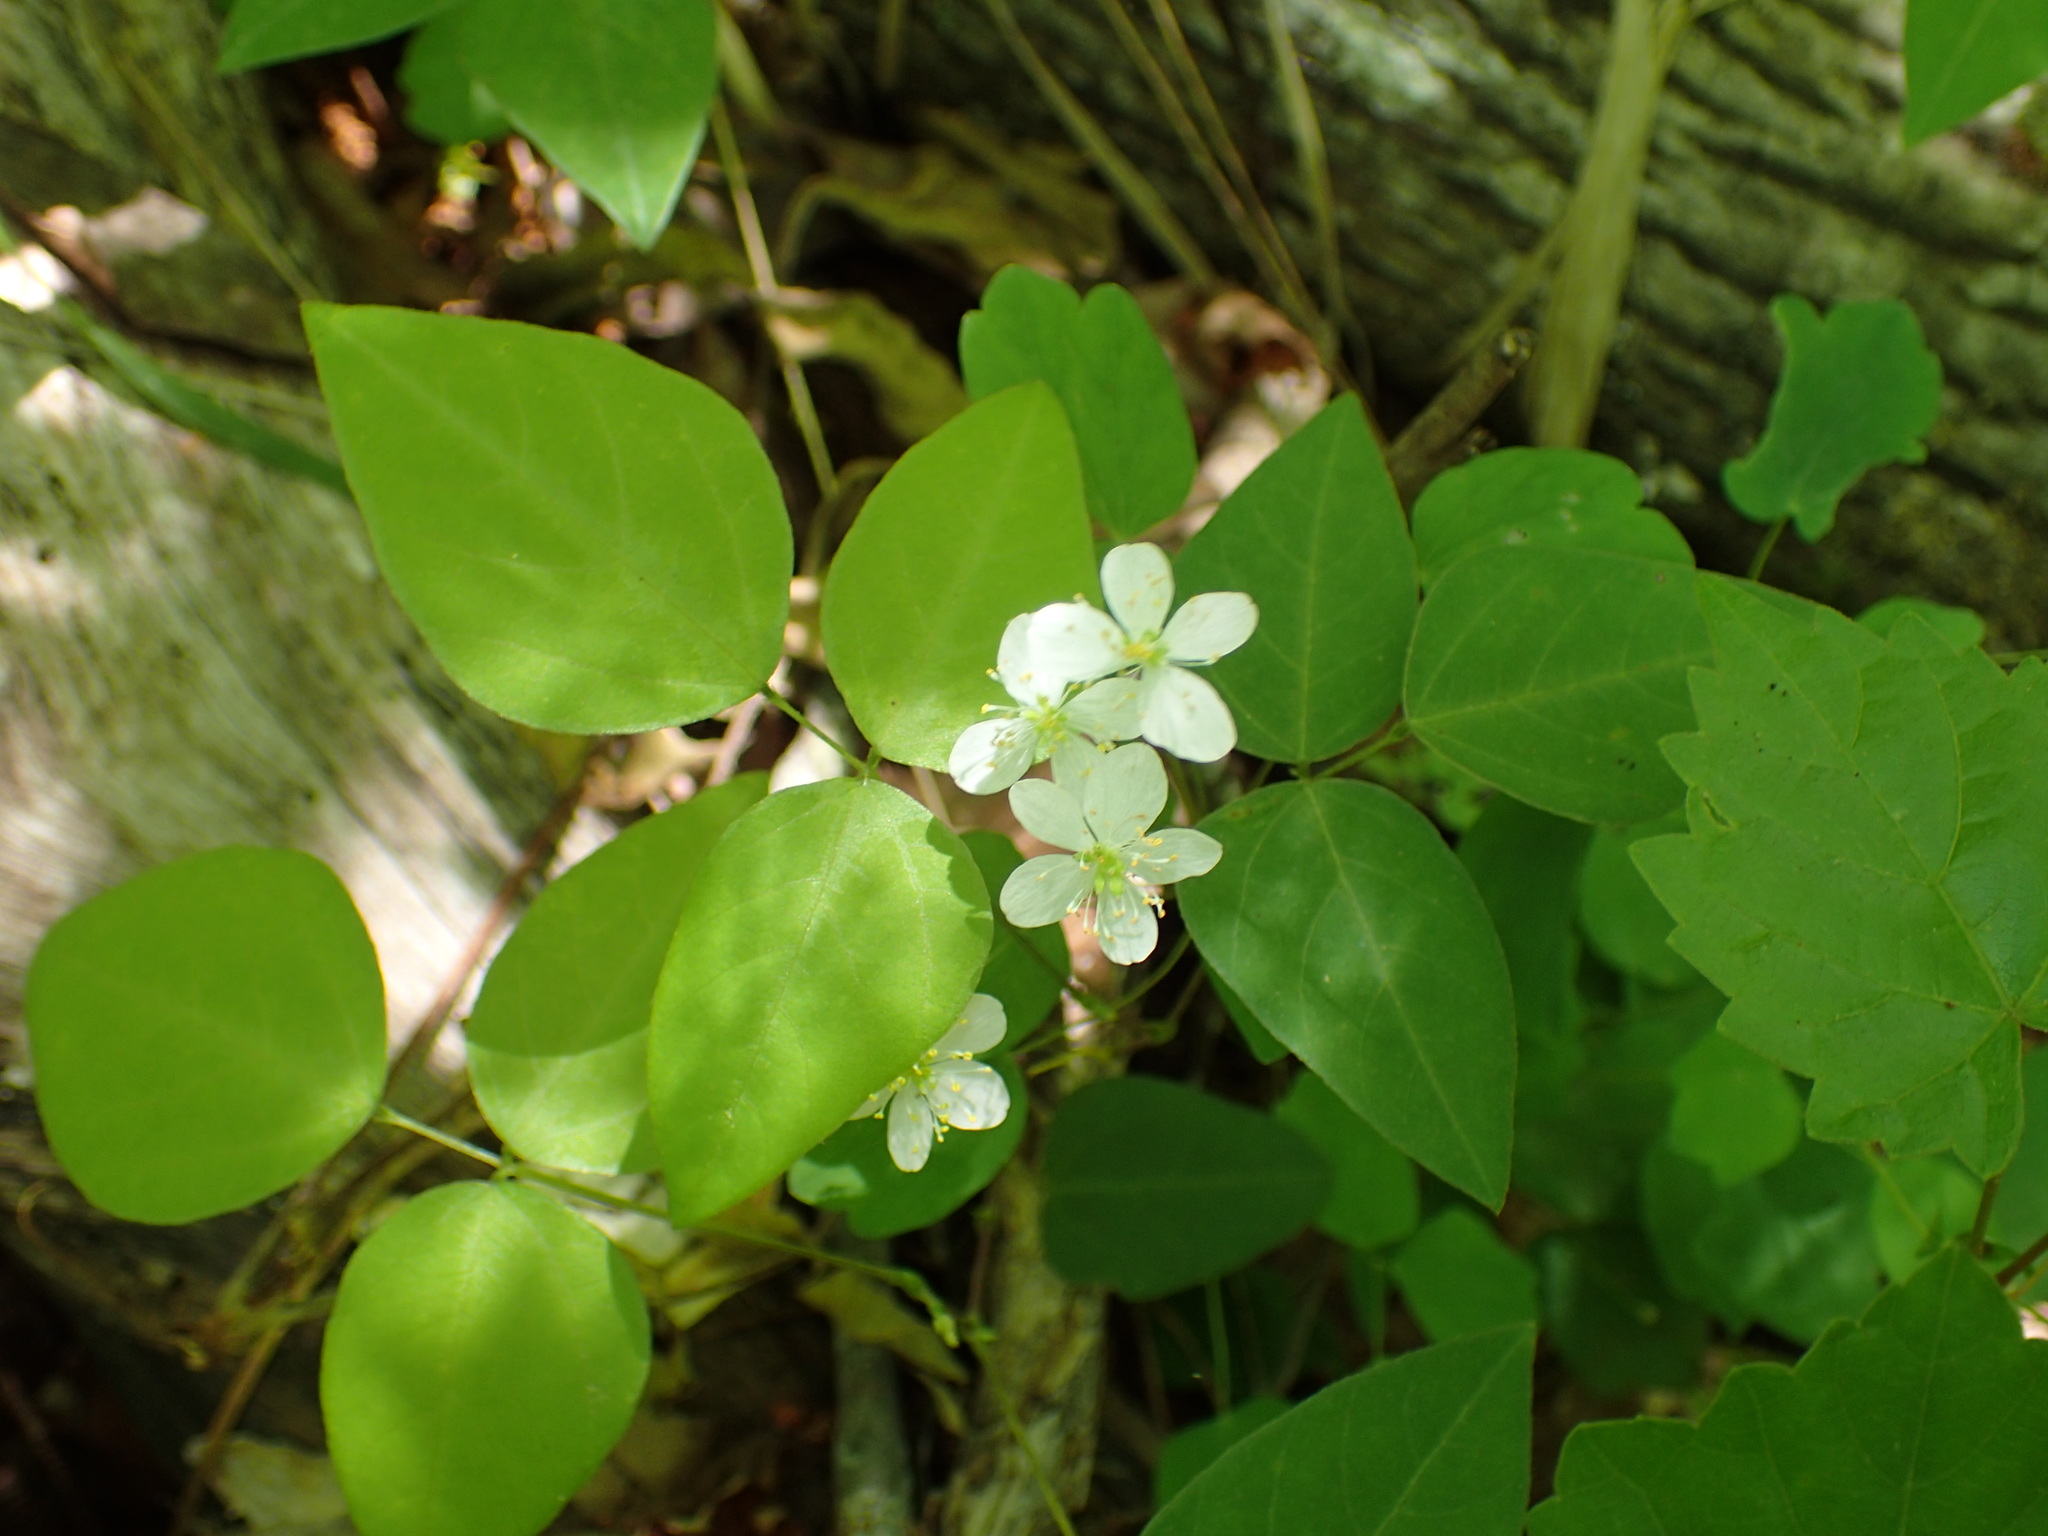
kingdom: Plantae
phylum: Tracheophyta
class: Magnoliopsida
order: Ranunculales
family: Ranunculaceae
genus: Thalictrum
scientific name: Thalictrum thalictroides
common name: Rue-anemone
